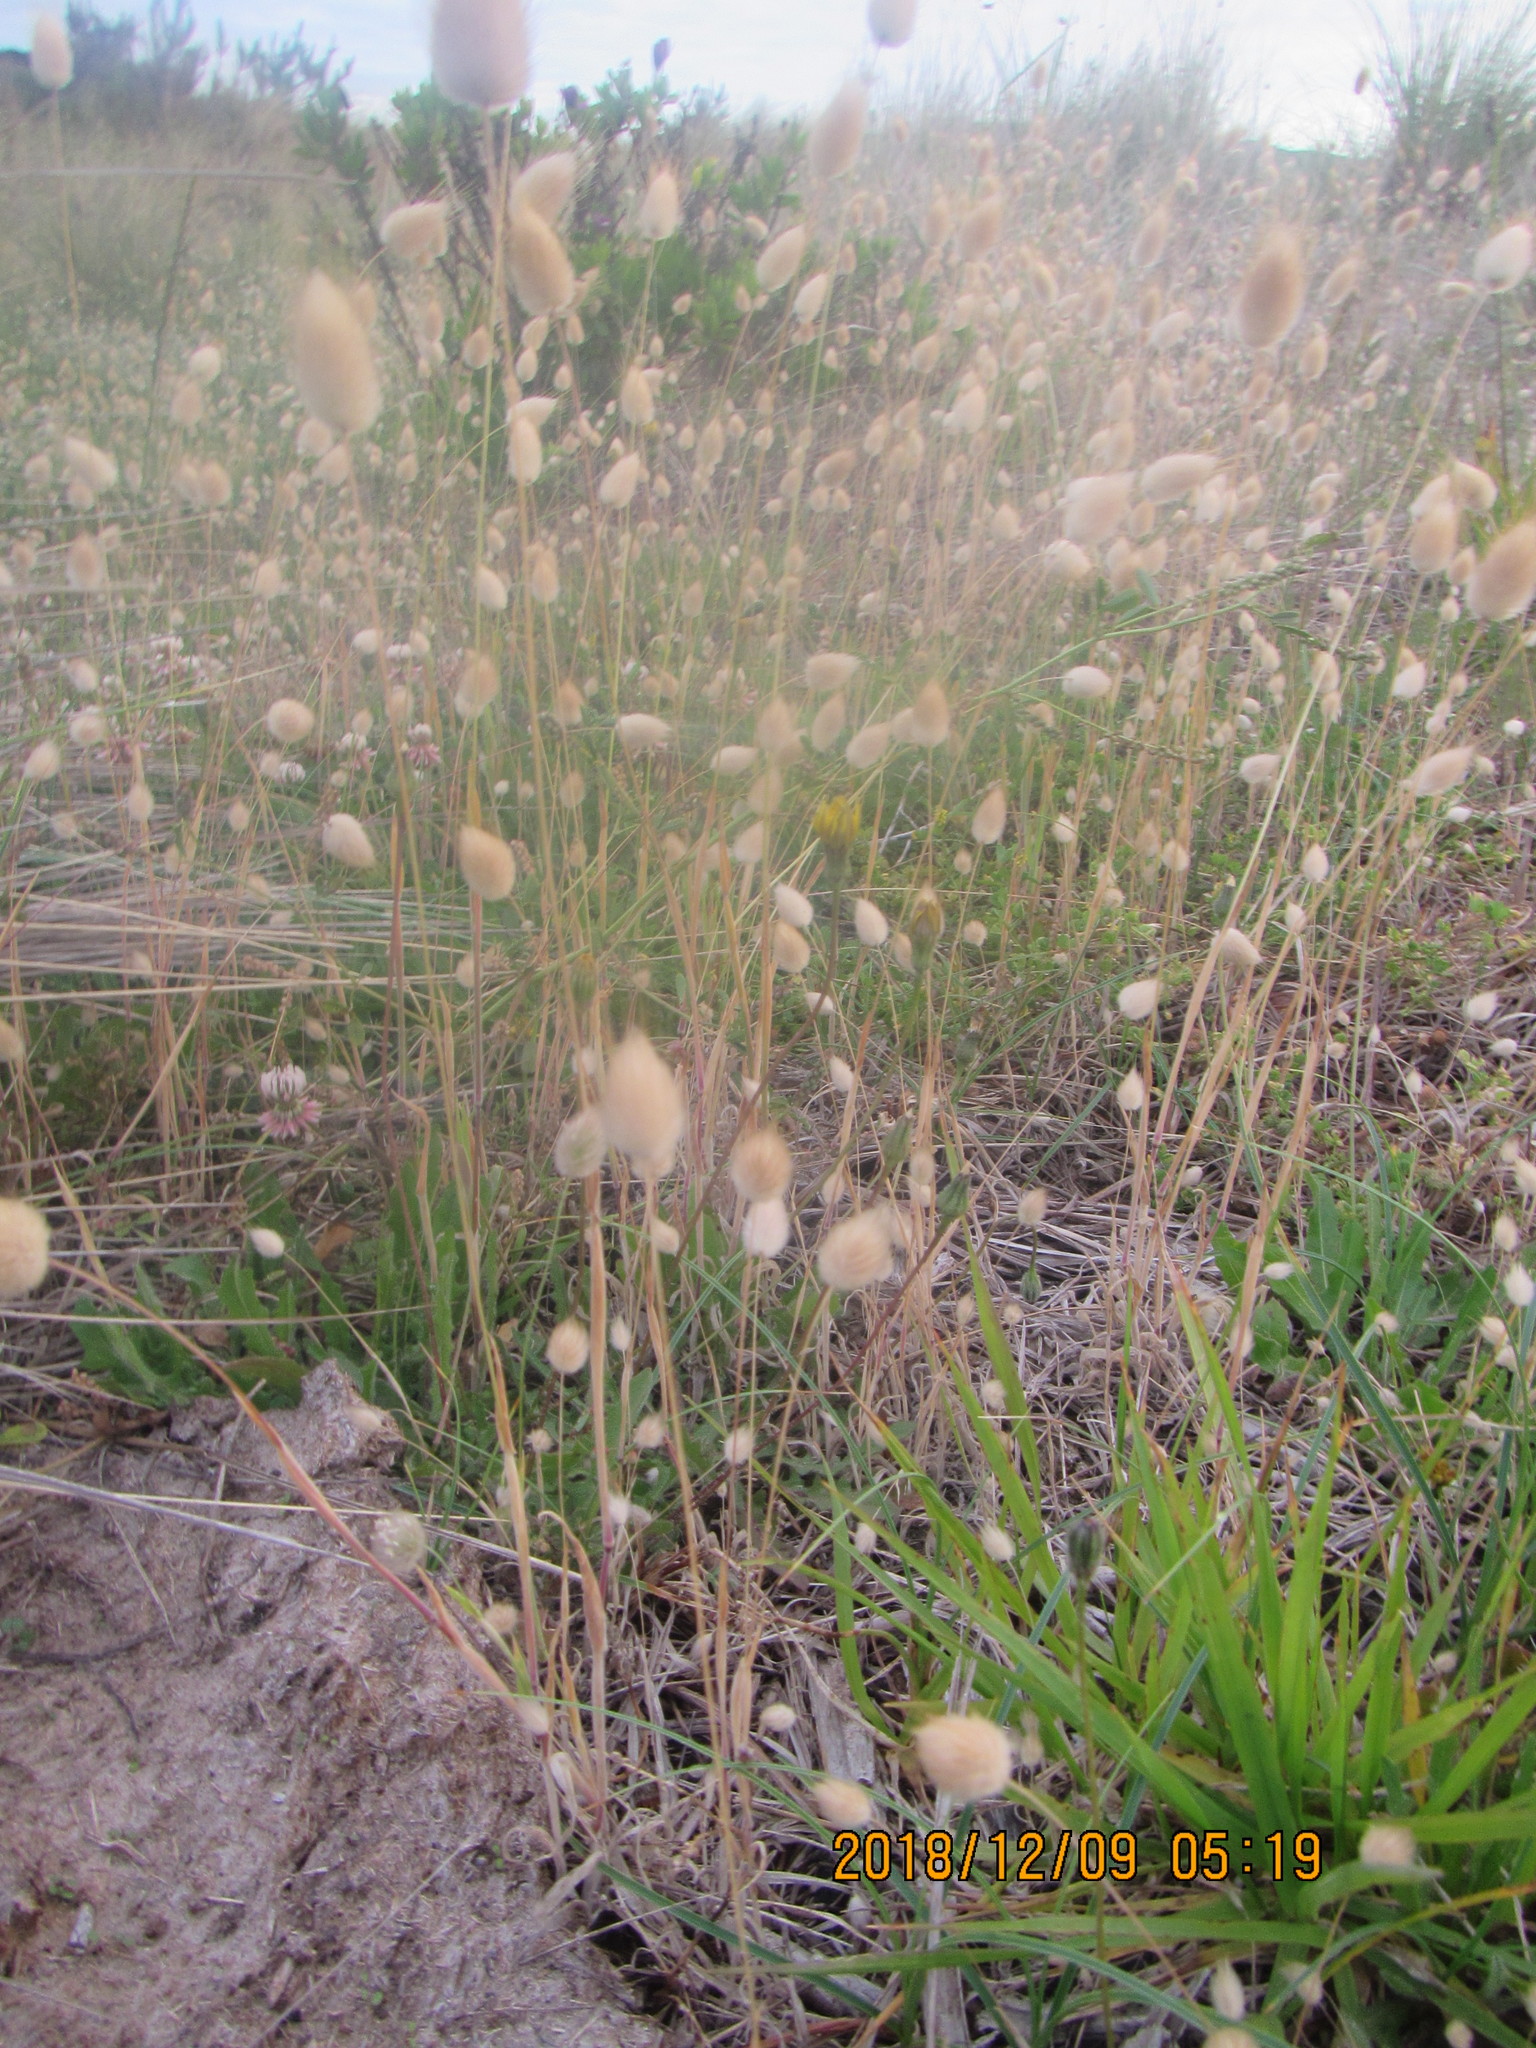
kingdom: Plantae
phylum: Tracheophyta
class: Liliopsida
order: Poales
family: Poaceae
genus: Lagurus
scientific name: Lagurus ovatus
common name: Hare's-tail
